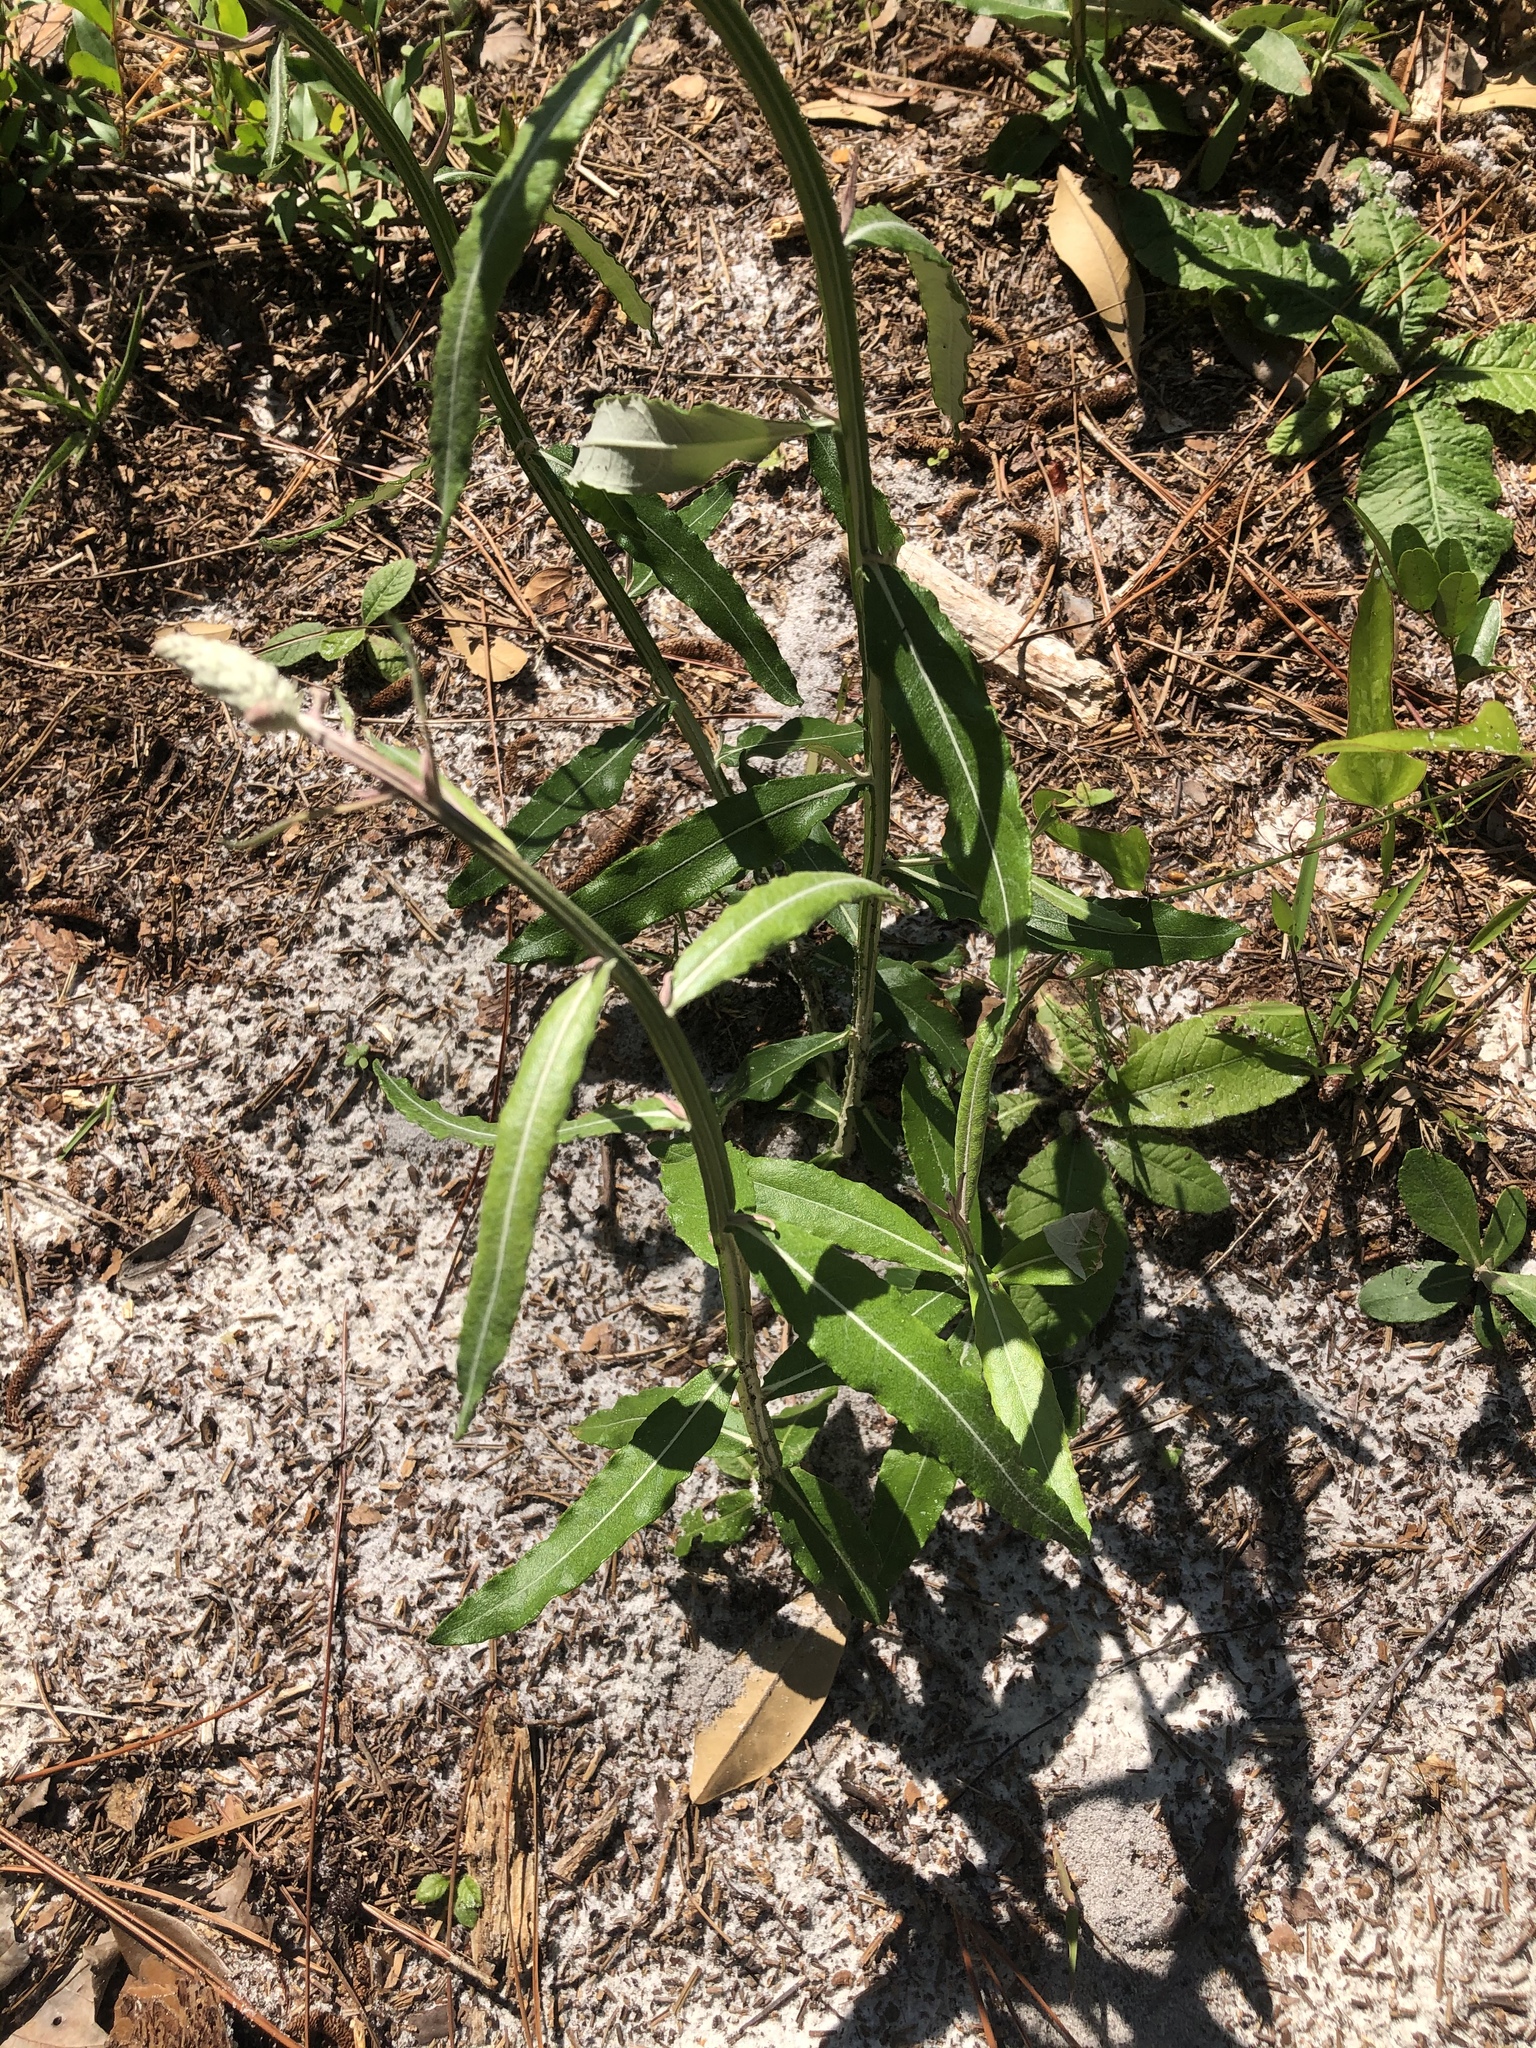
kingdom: Plantae
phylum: Tracheophyta
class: Magnoliopsida
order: Asterales
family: Asteraceae
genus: Pterocaulon
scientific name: Pterocaulon pycnostachyum
